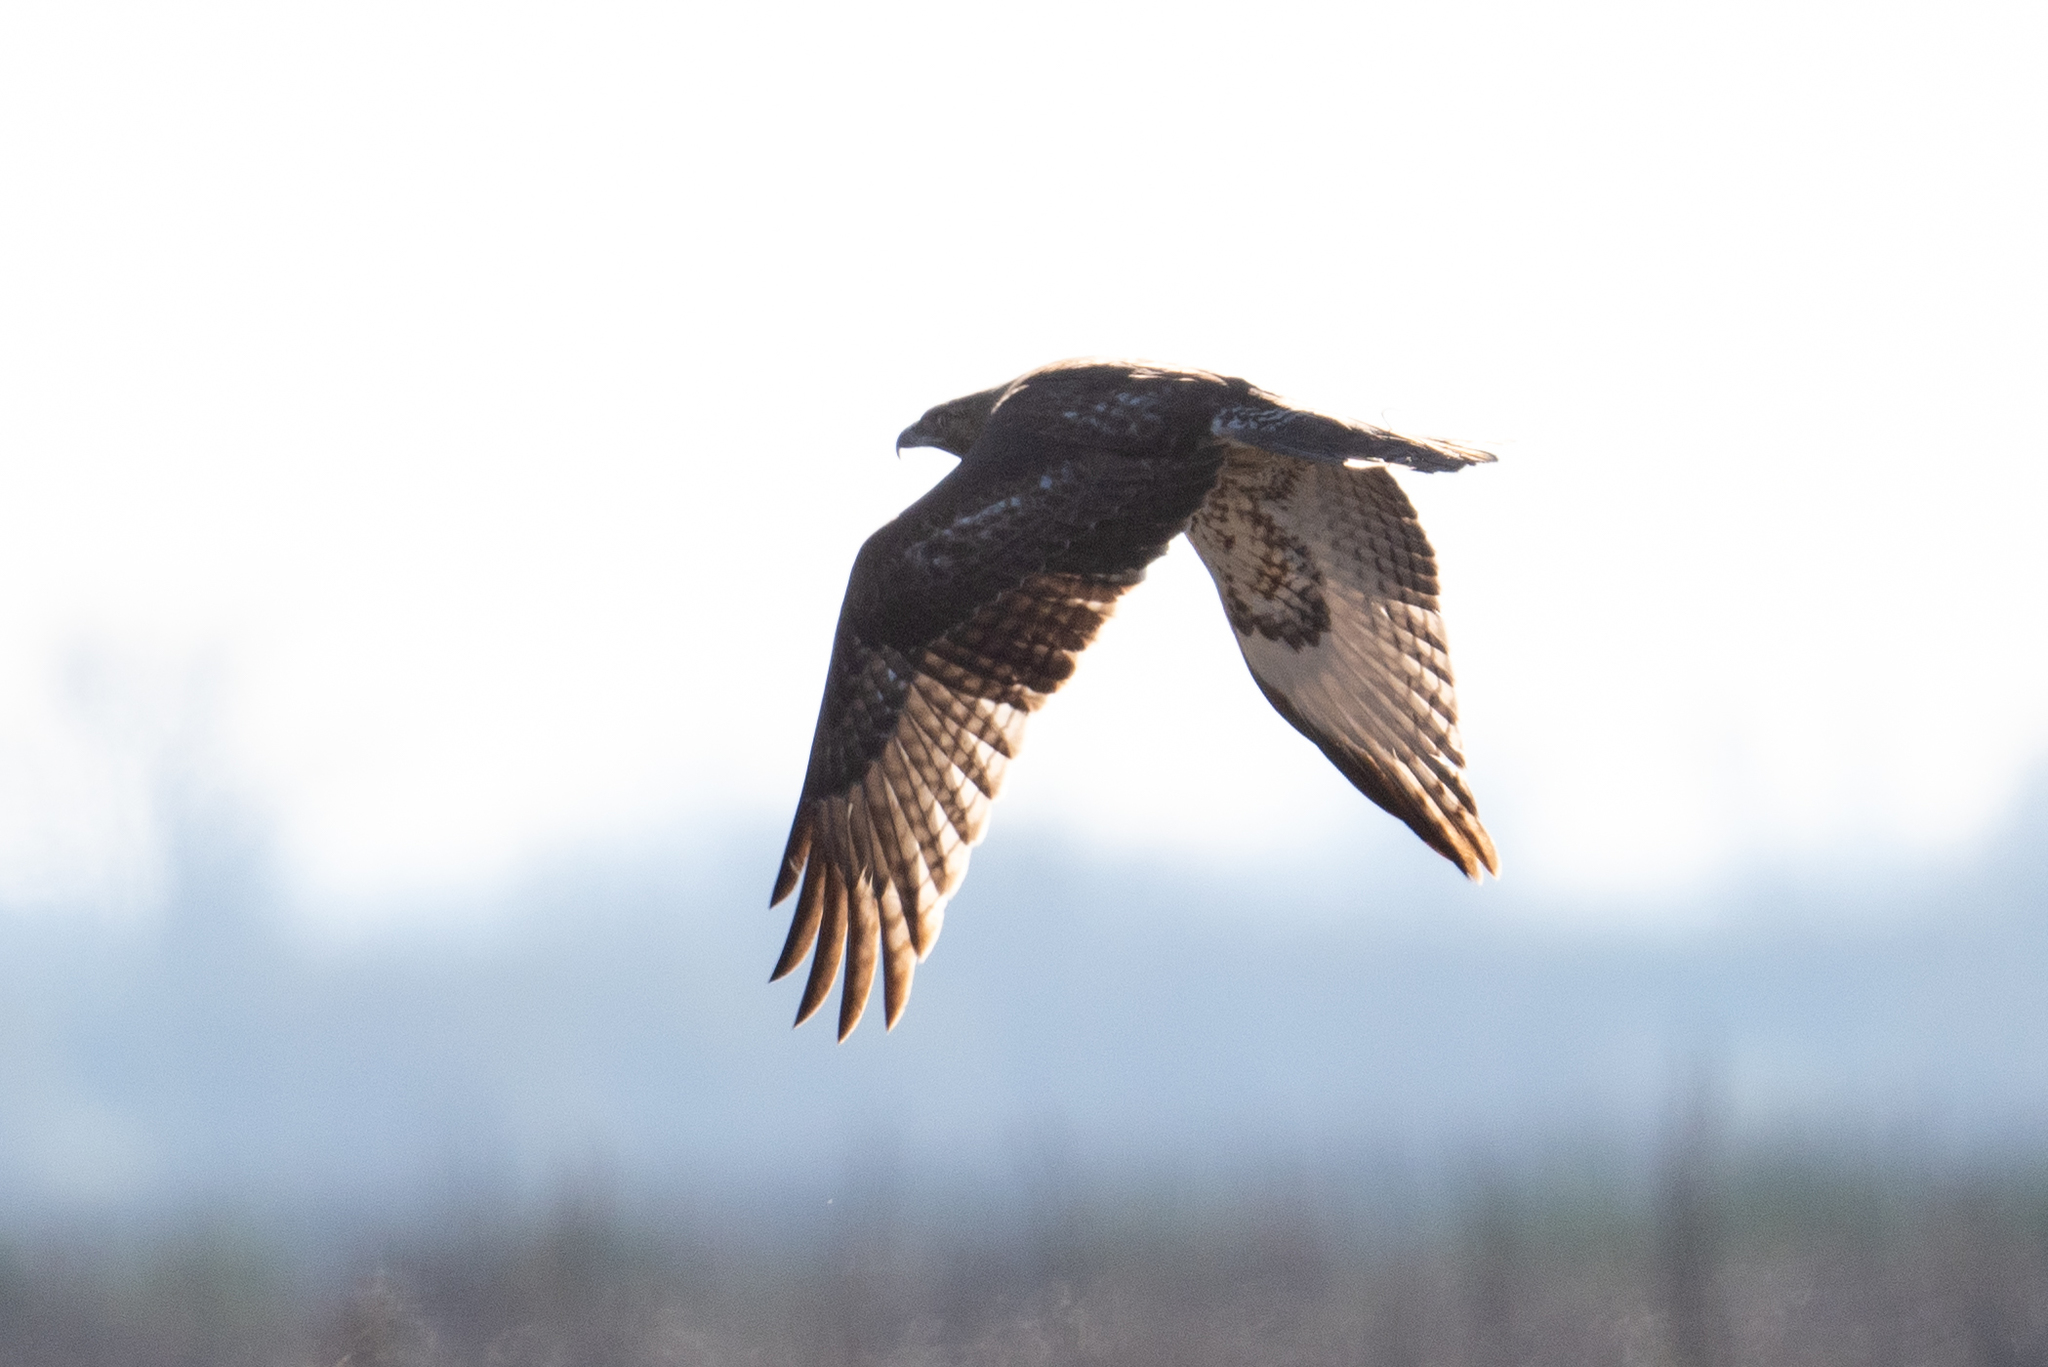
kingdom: Animalia
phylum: Chordata
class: Aves
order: Accipitriformes
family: Accipitridae
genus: Buteo
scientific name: Buteo jamaicensis
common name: Red-tailed hawk
